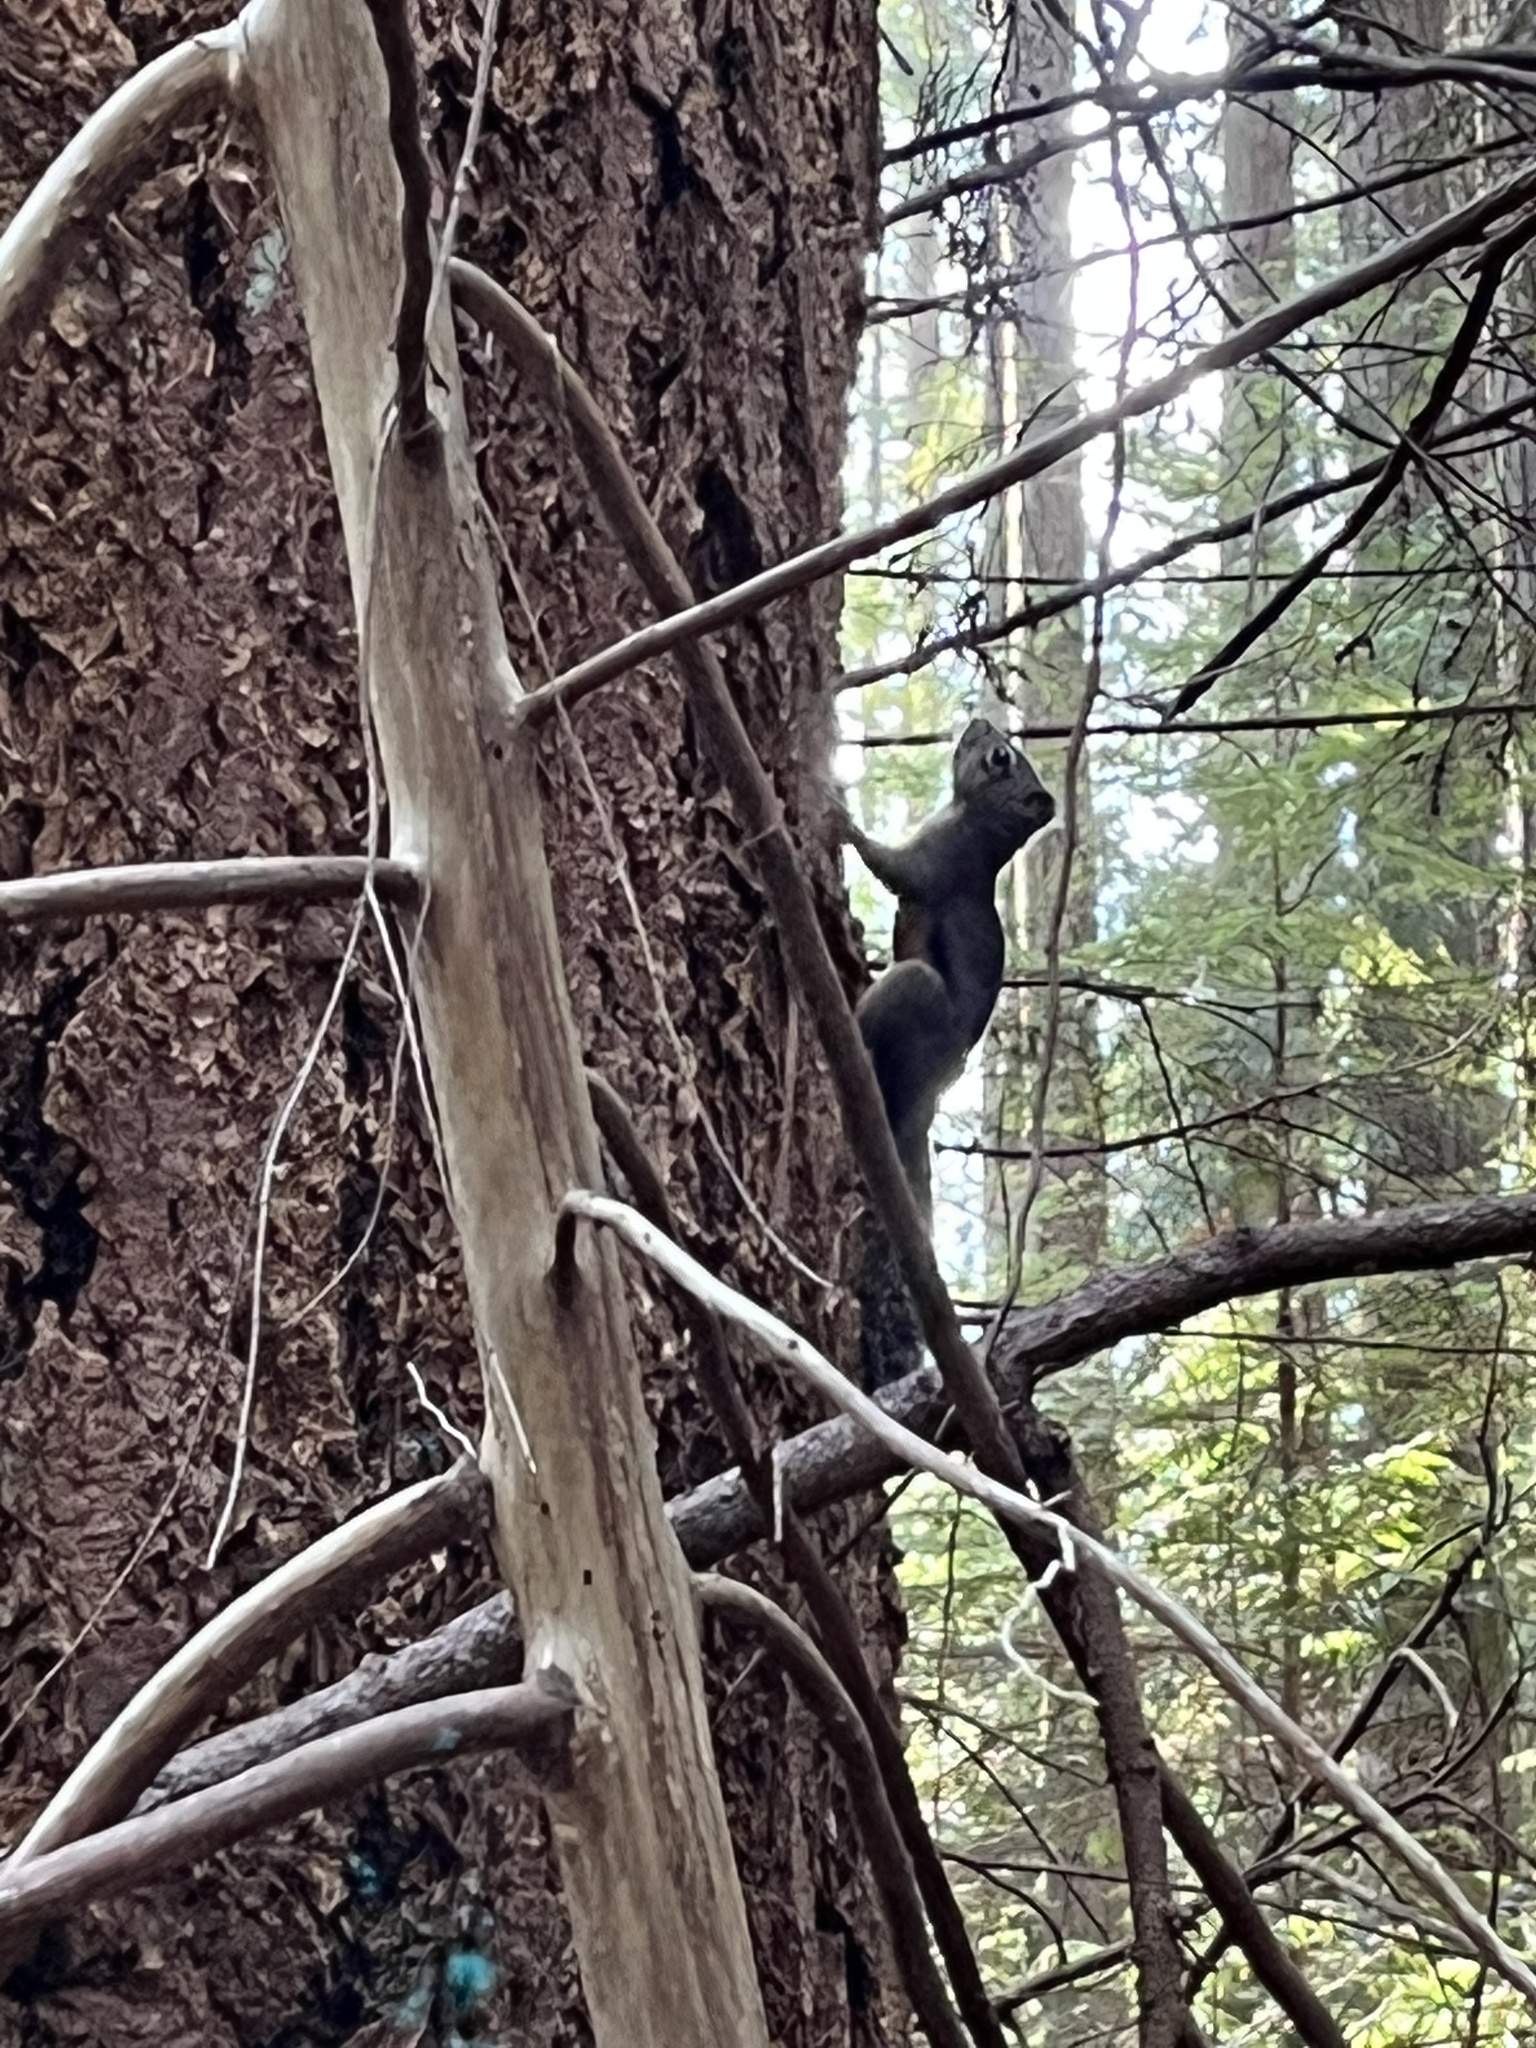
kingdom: Animalia
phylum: Chordata
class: Mammalia
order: Rodentia
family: Sciuridae
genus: Tamiasciurus
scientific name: Tamiasciurus douglasii
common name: Douglas's squirrel
